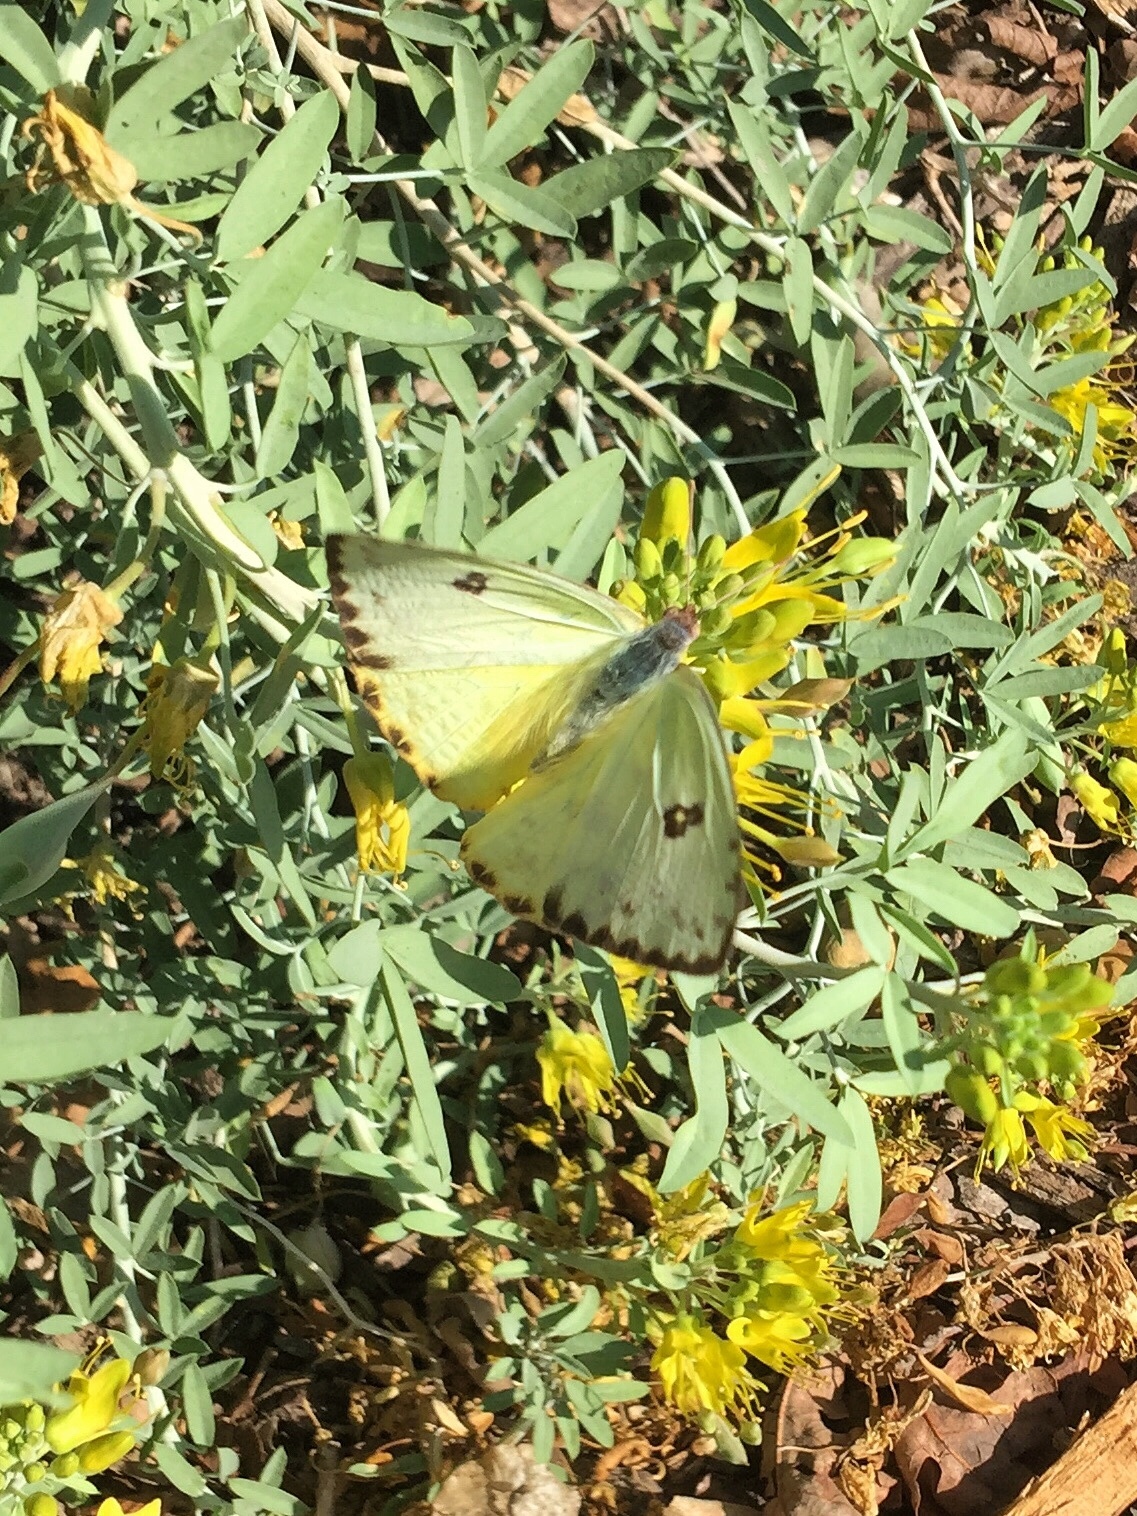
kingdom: Animalia
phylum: Arthropoda
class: Insecta
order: Lepidoptera
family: Pieridae
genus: Phoebis
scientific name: Phoebis sennae
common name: Cloudless sulphur
